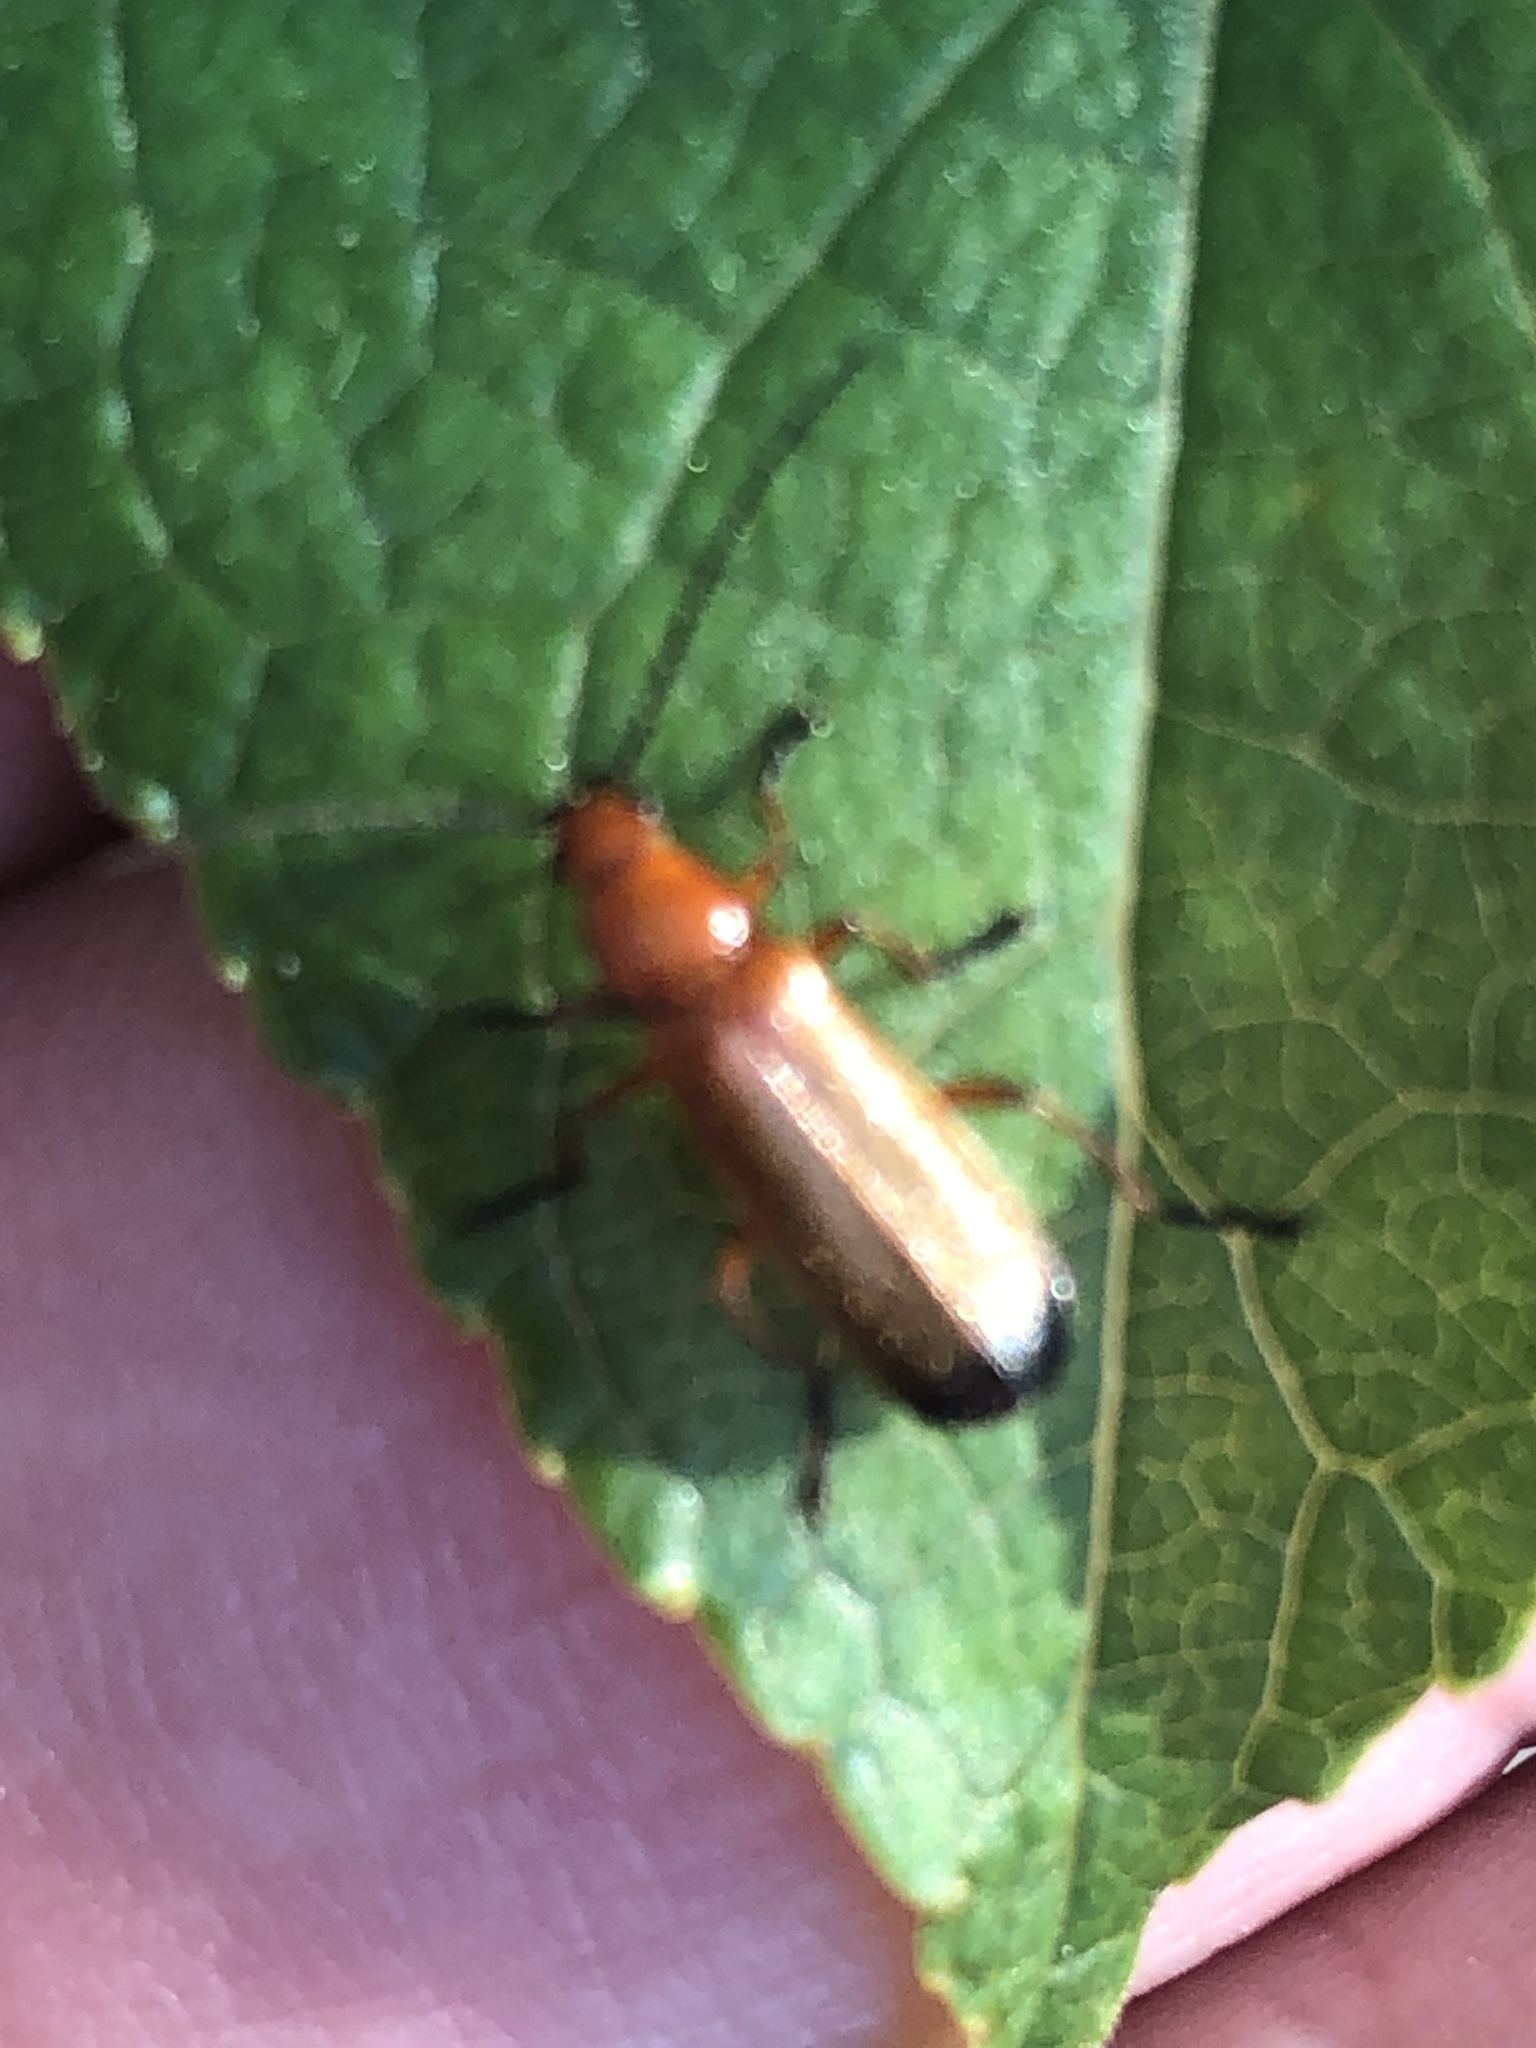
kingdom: Animalia
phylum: Arthropoda
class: Insecta
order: Coleoptera
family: Cantharidae
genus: Rhagonycha
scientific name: Rhagonycha fulva
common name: Common red soldier beetle
